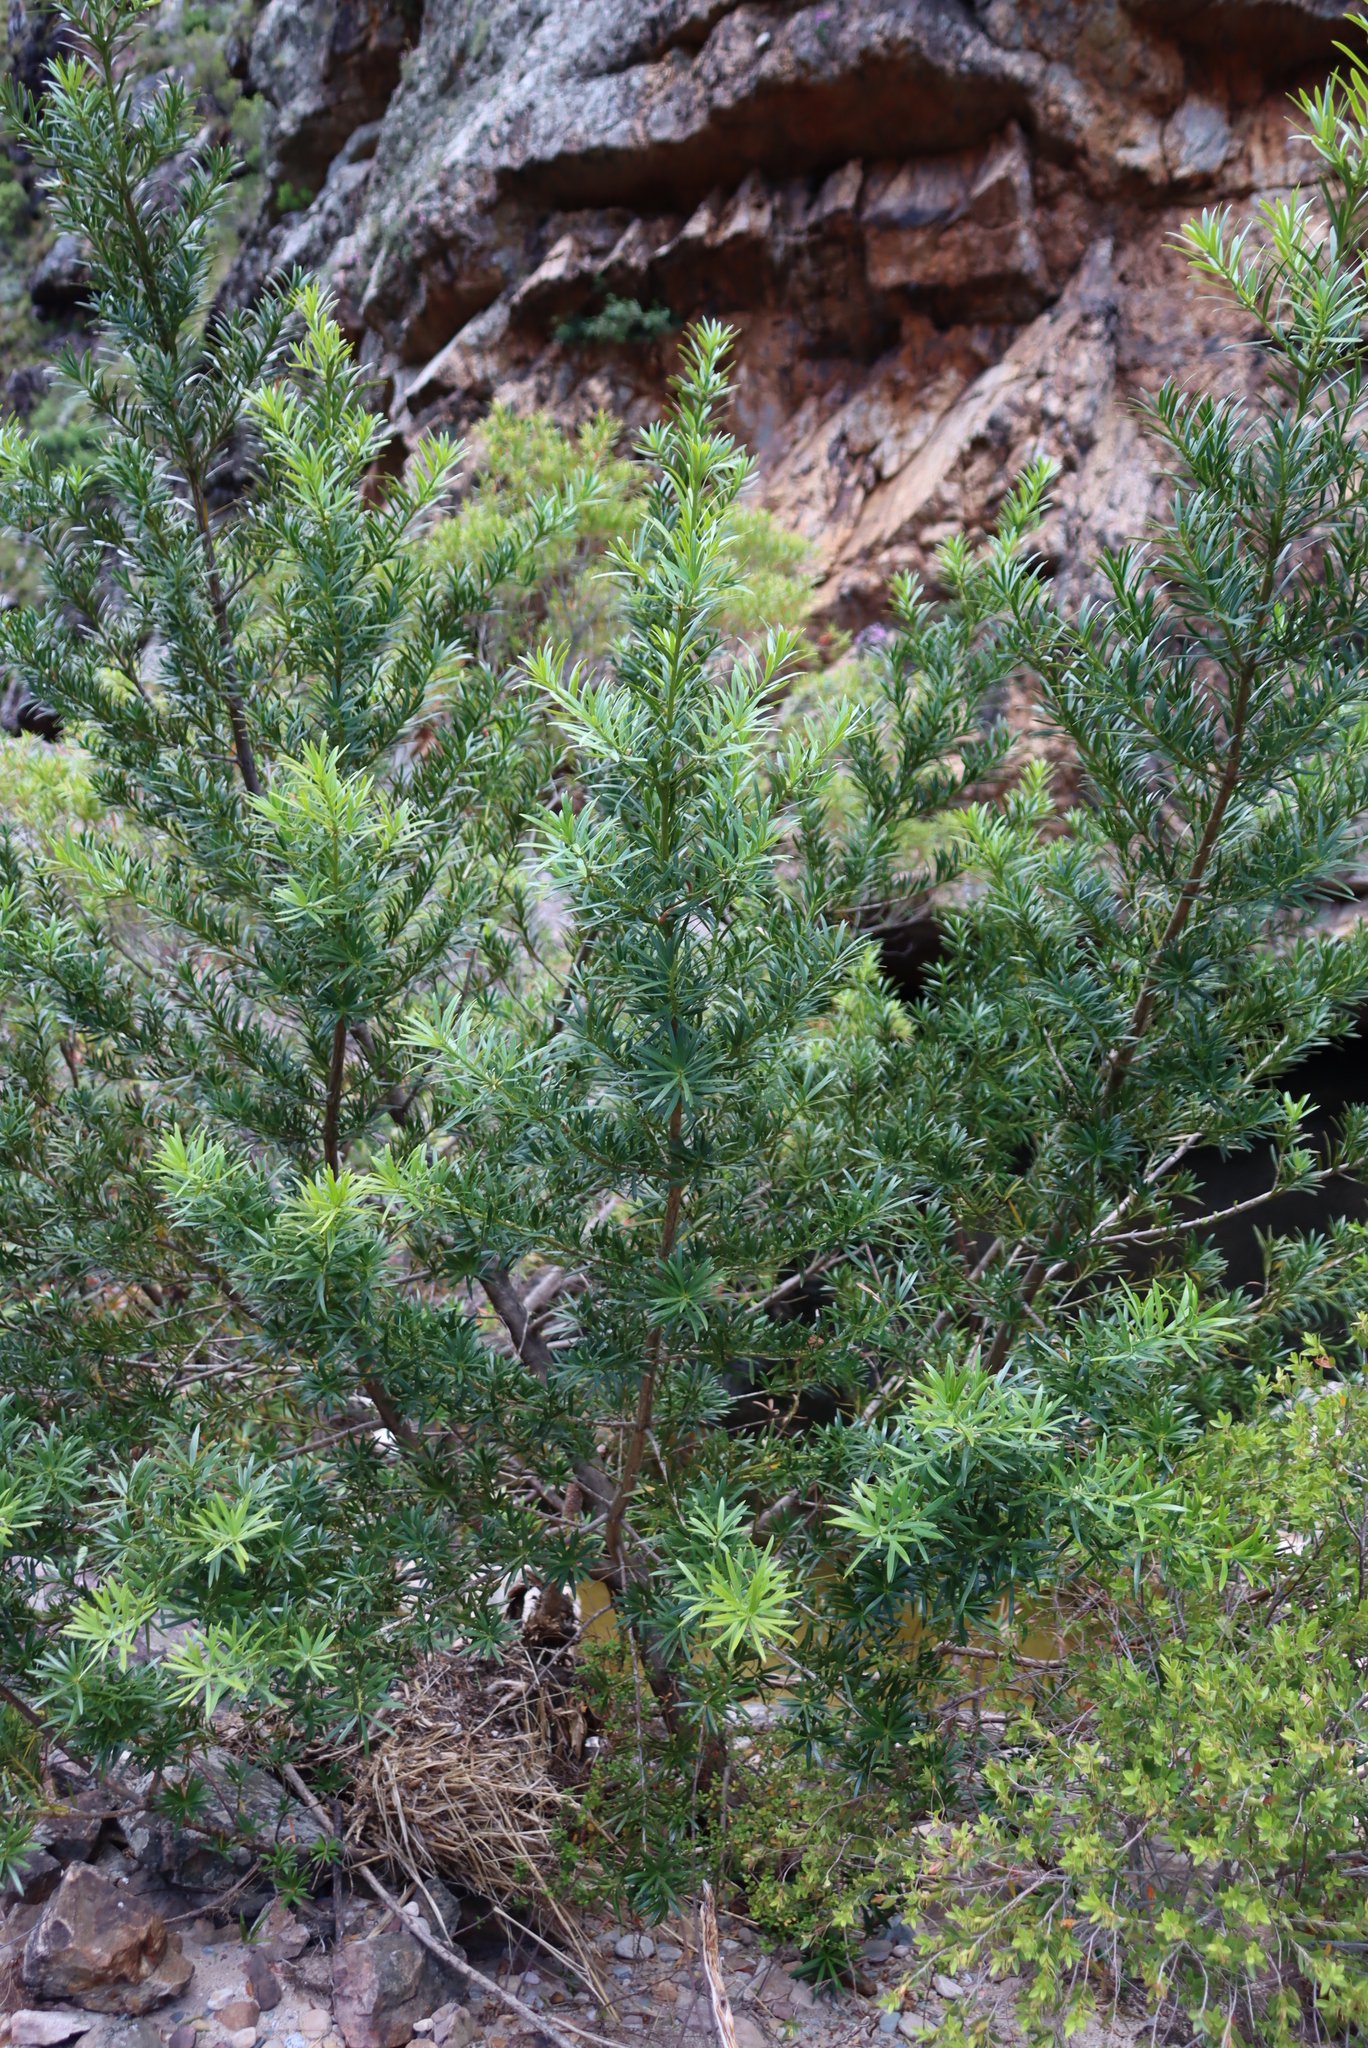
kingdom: Plantae
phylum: Tracheophyta
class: Pinopsida
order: Pinales
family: Podocarpaceae
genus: Podocarpus
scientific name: Podocarpus elongatus
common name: Breede river yellowwood
